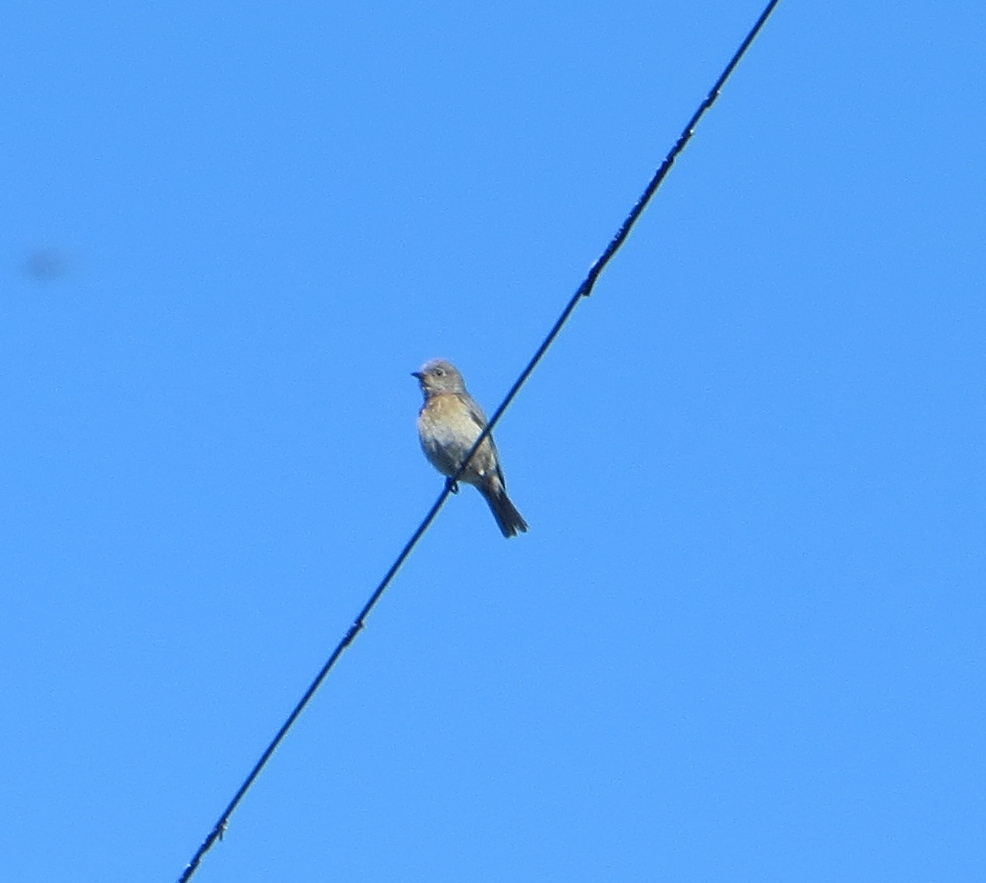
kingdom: Animalia
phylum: Chordata
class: Aves
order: Passeriformes
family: Turdidae
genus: Sialia
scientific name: Sialia mexicana
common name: Western bluebird
